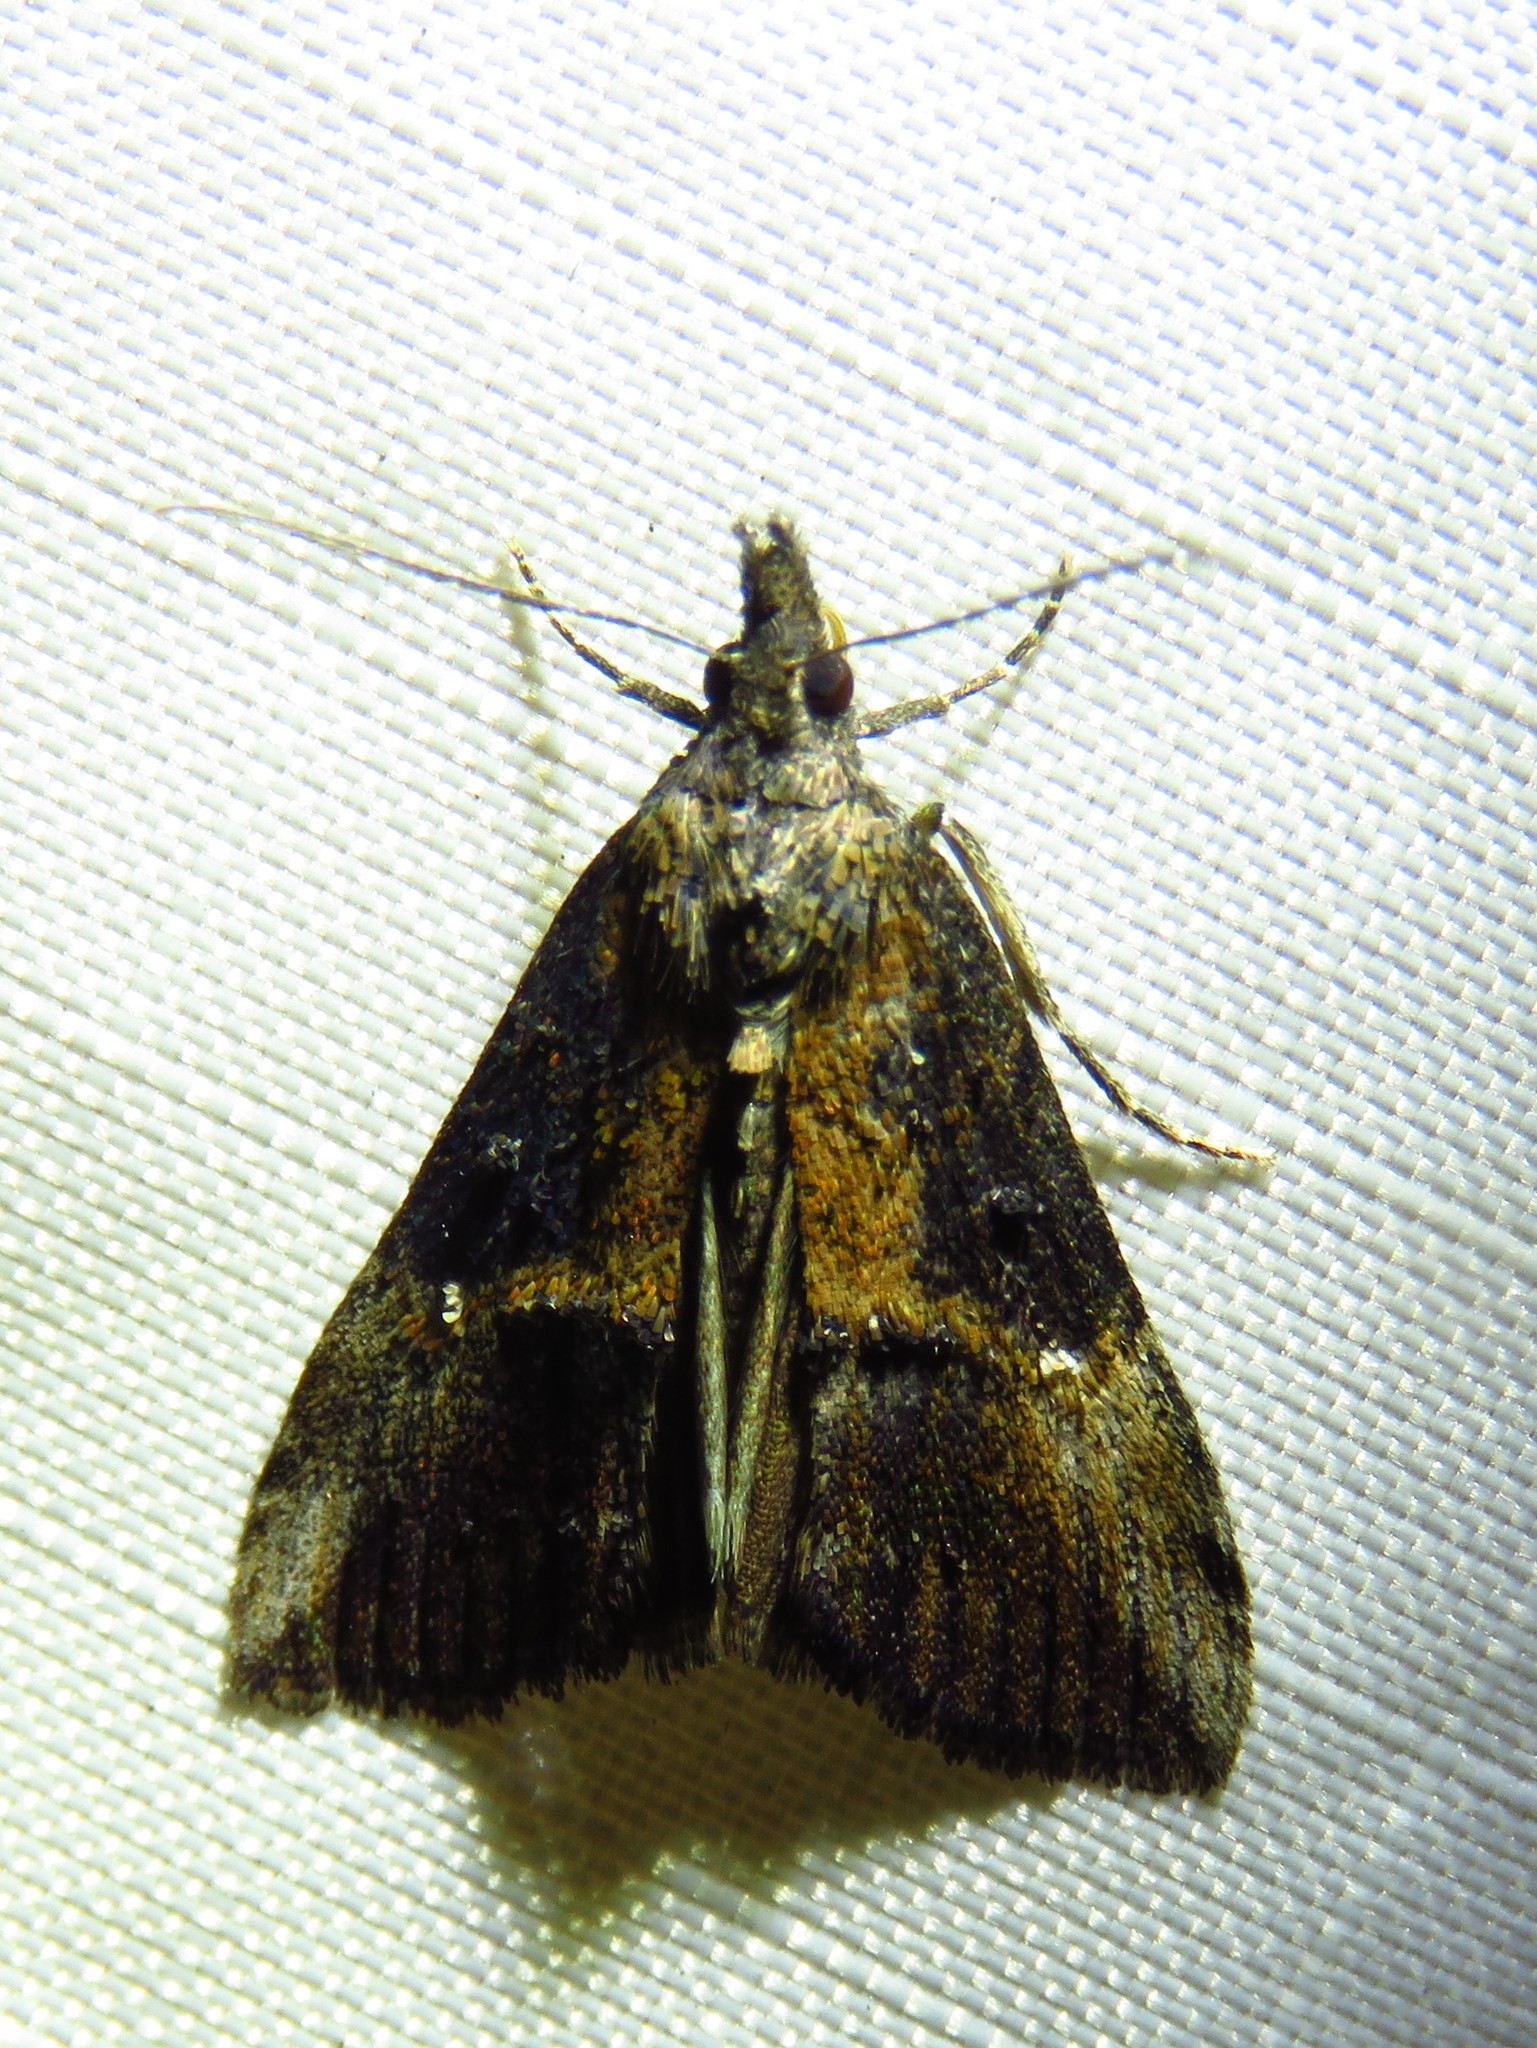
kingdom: Animalia
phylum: Arthropoda
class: Insecta
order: Lepidoptera
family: Erebidae
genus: Hypena
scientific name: Hypena scabra
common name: Green cloverworm
